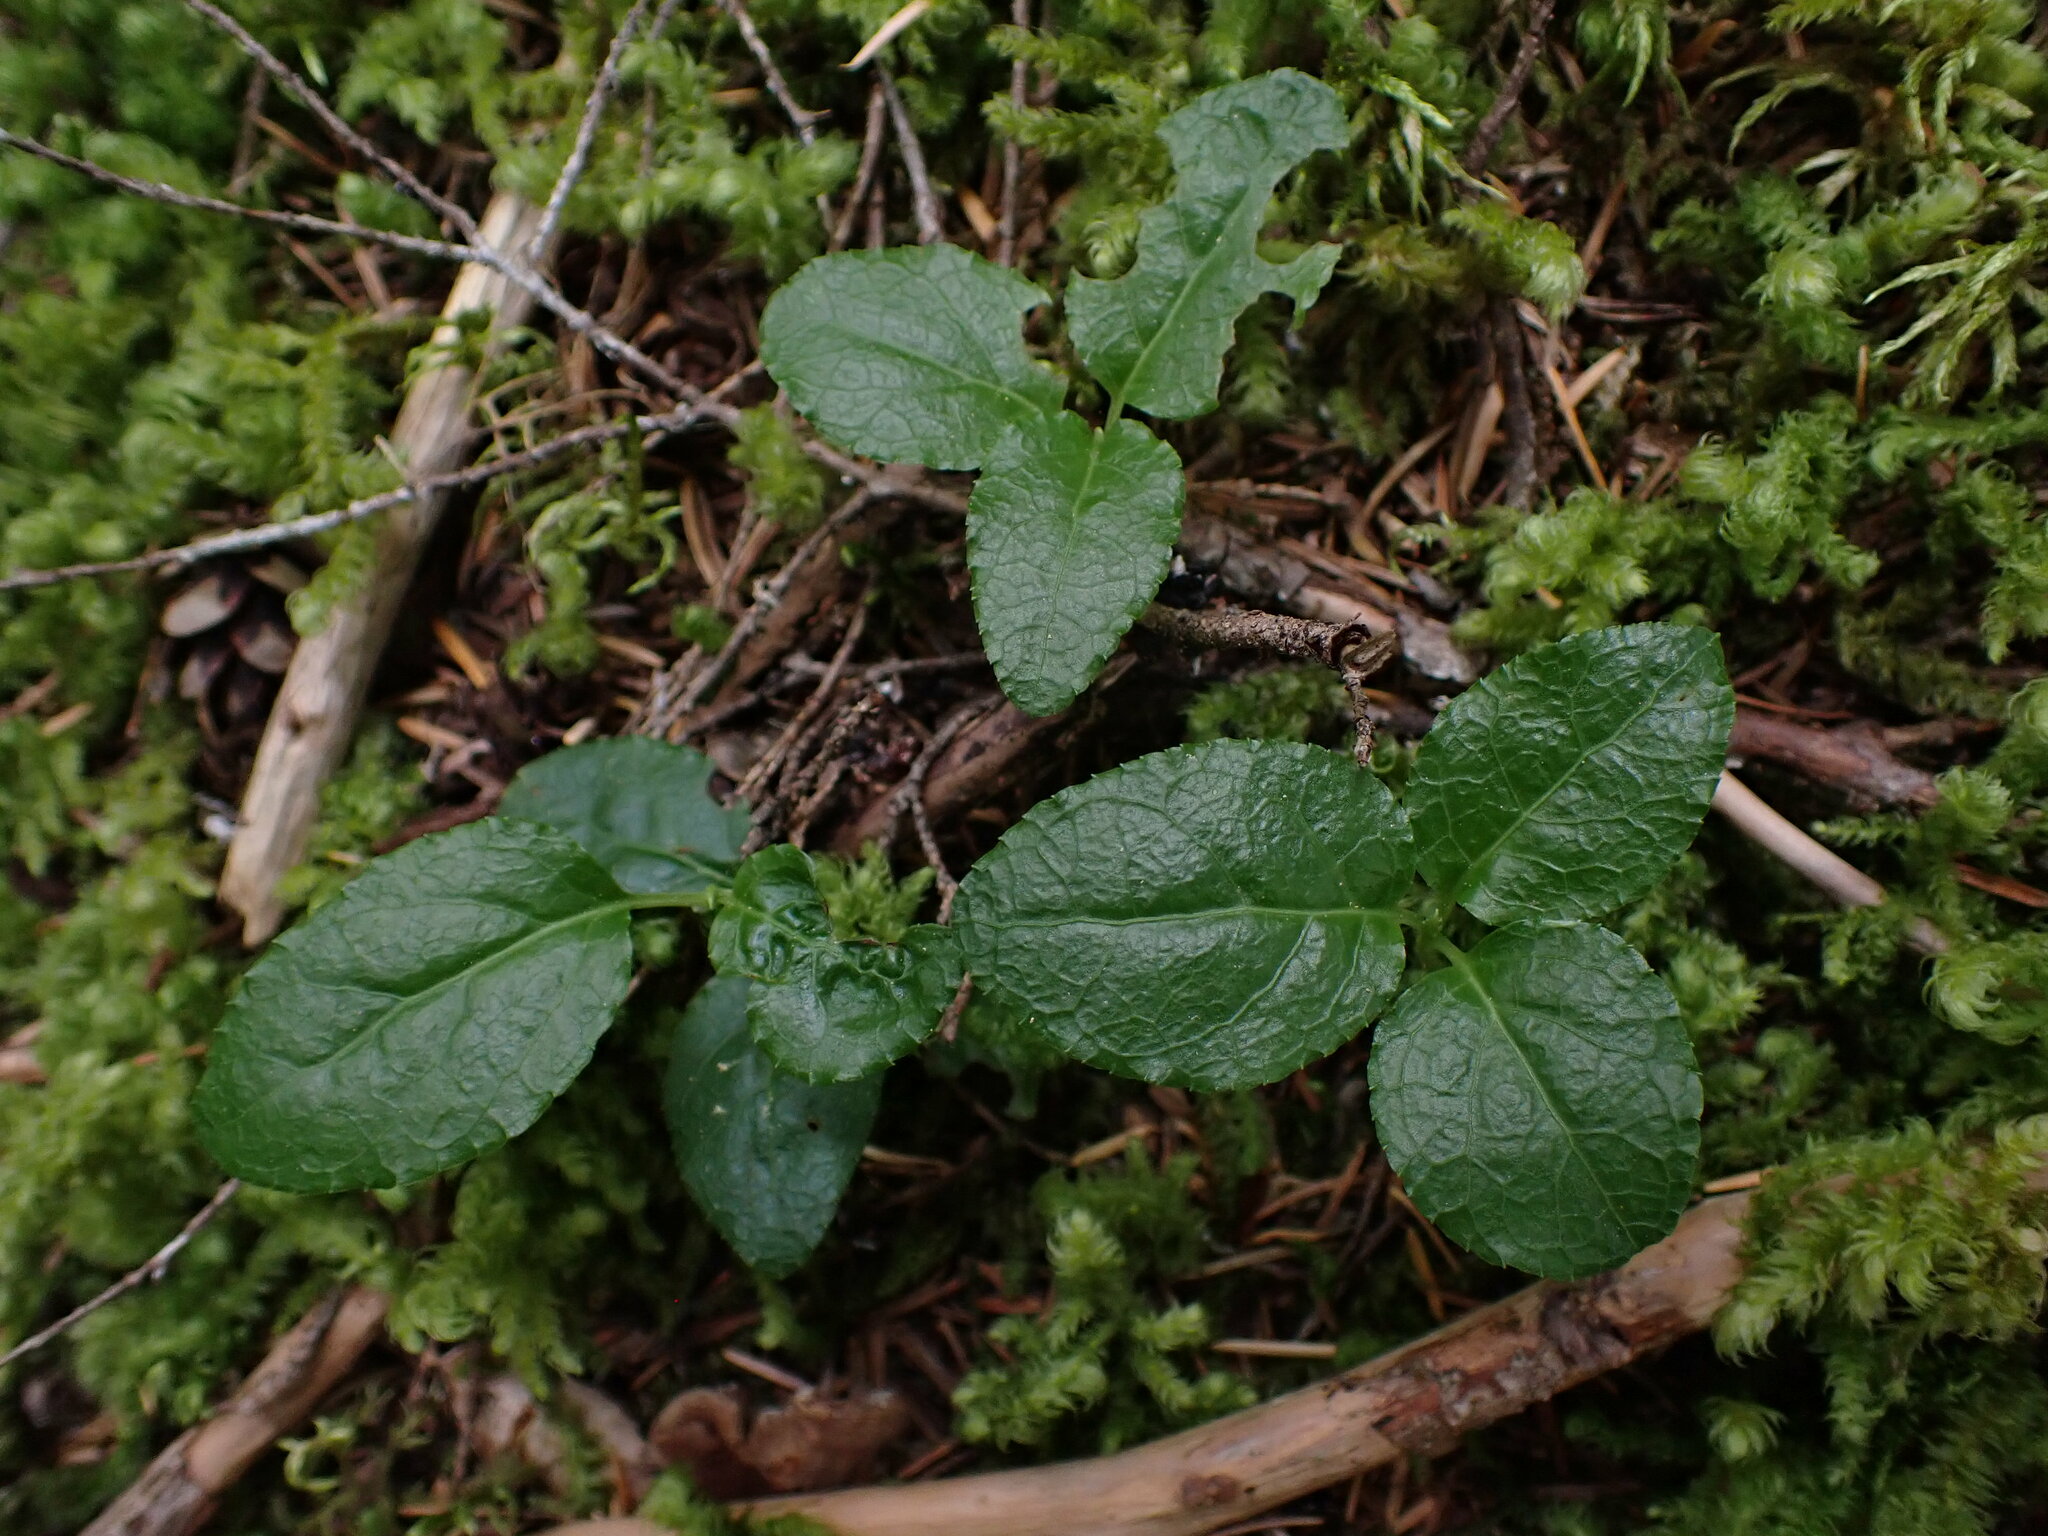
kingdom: Plantae
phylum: Tracheophyta
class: Magnoliopsida
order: Ericales
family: Ericaceae
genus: Orthilia
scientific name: Orthilia secunda
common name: One-sided orthilia
